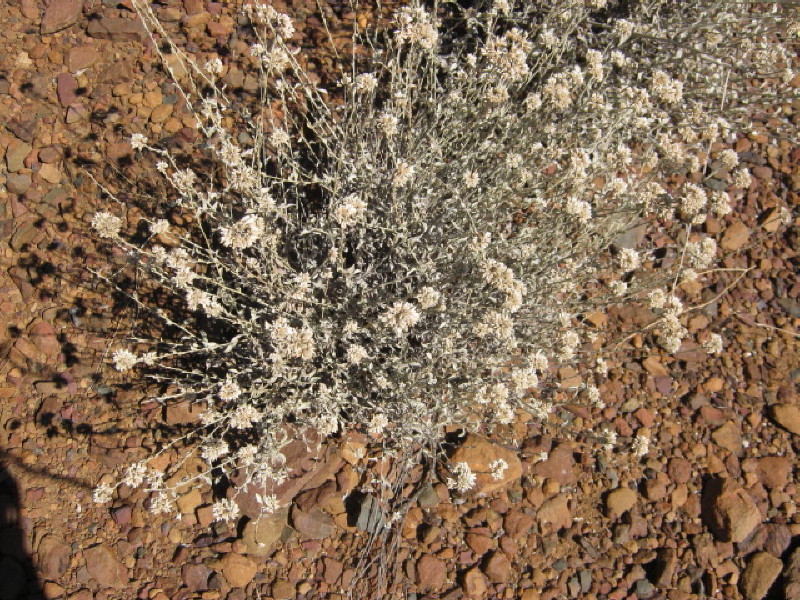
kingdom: Plantae
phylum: Tracheophyta
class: Magnoliopsida
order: Asterales
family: Asteraceae
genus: Helichrysum
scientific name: Helichrysum zeyheri
